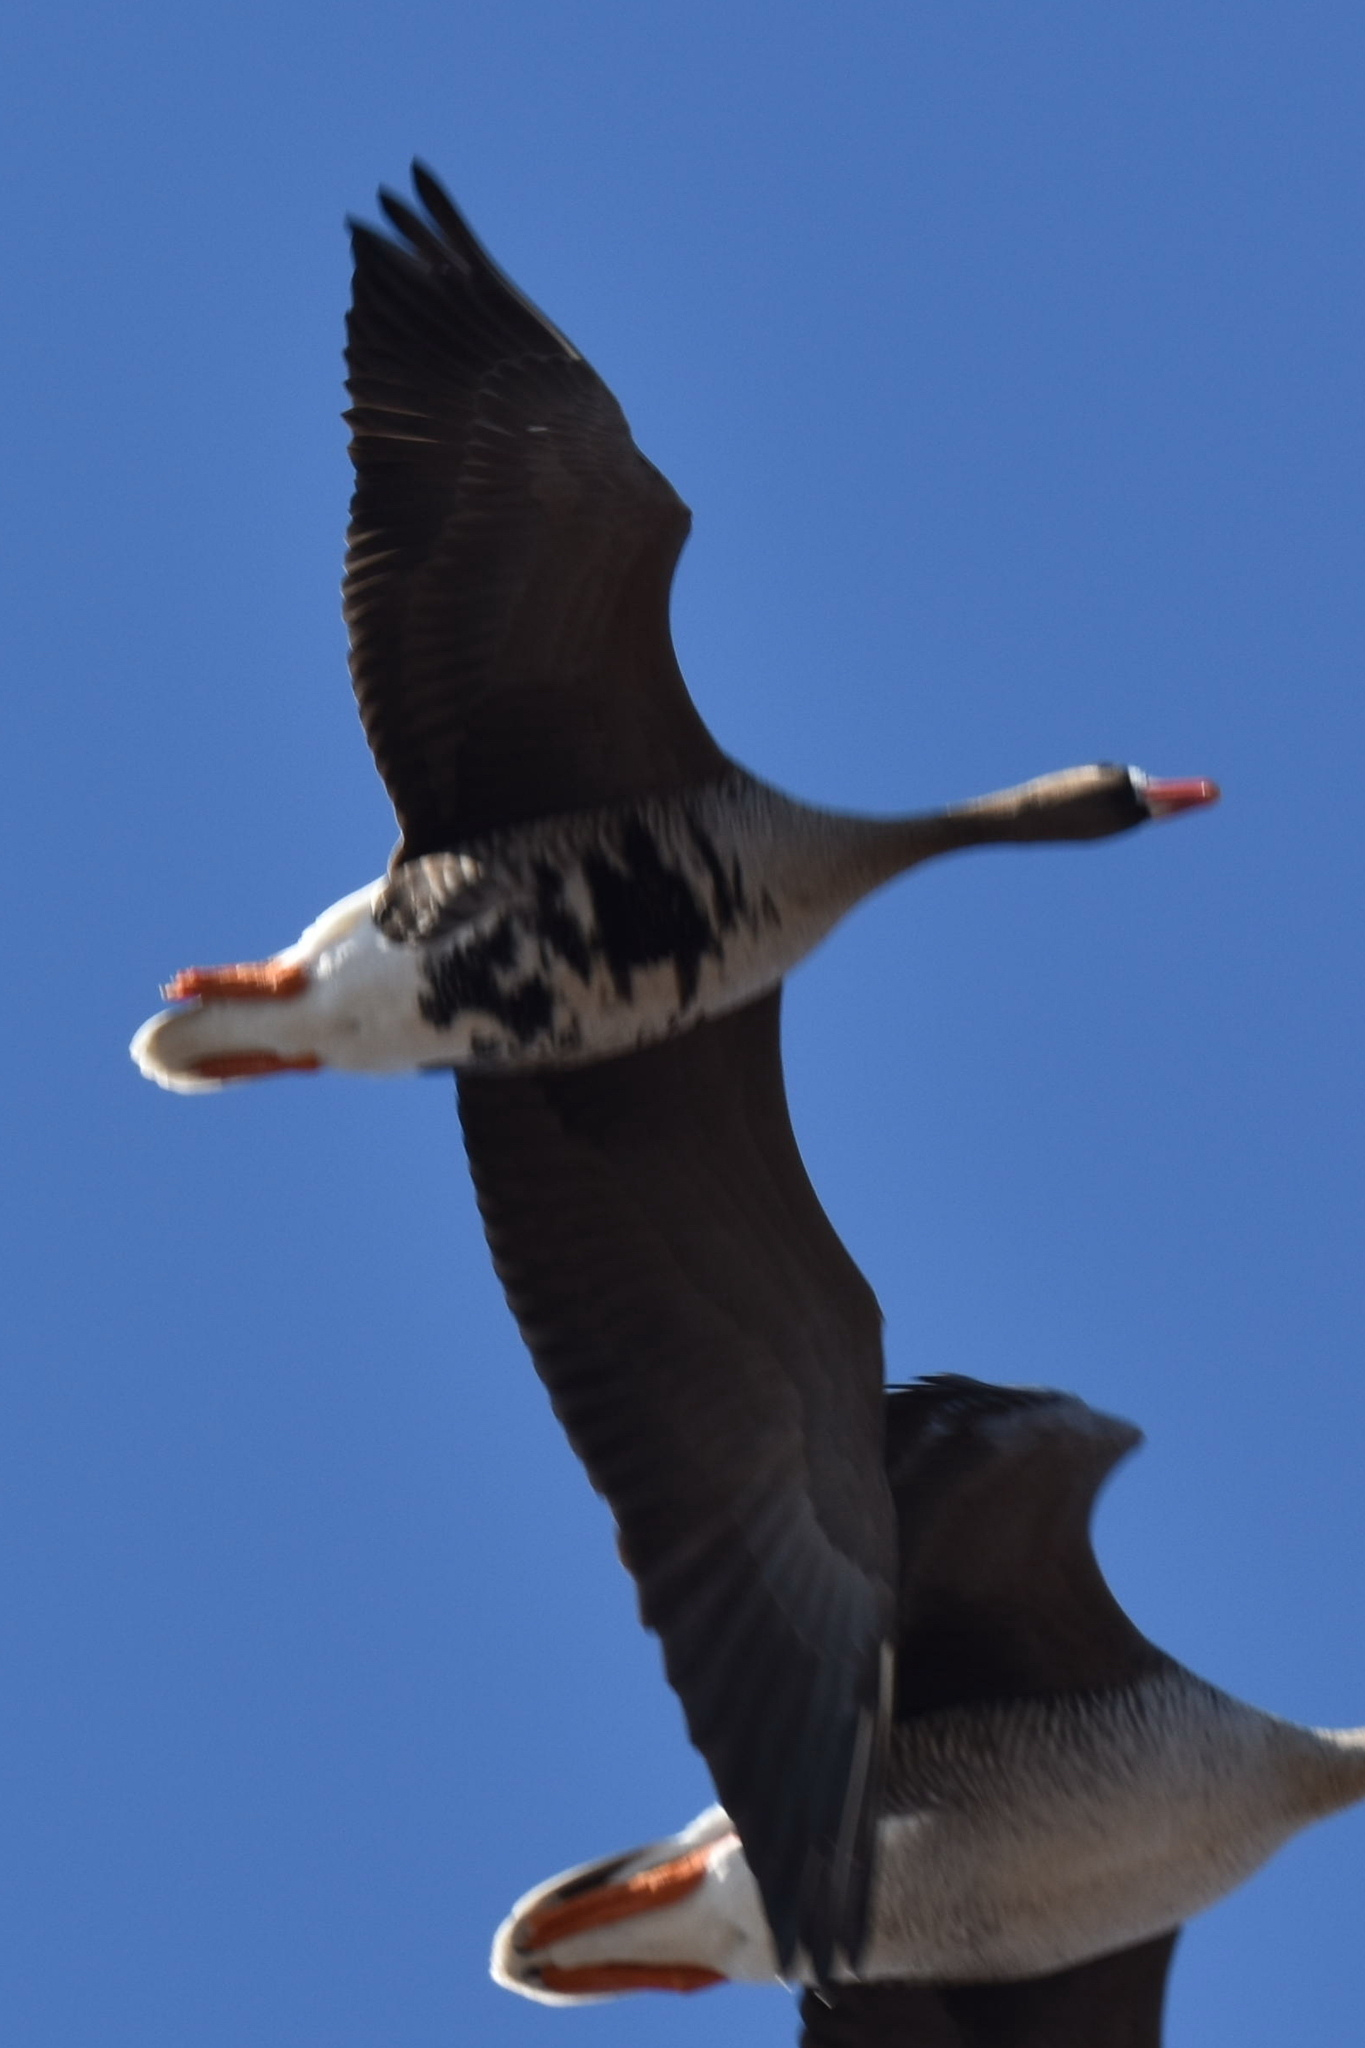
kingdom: Animalia
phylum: Chordata
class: Aves
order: Anseriformes
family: Anatidae
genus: Anser
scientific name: Anser albifrons
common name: Greater white-fronted goose
